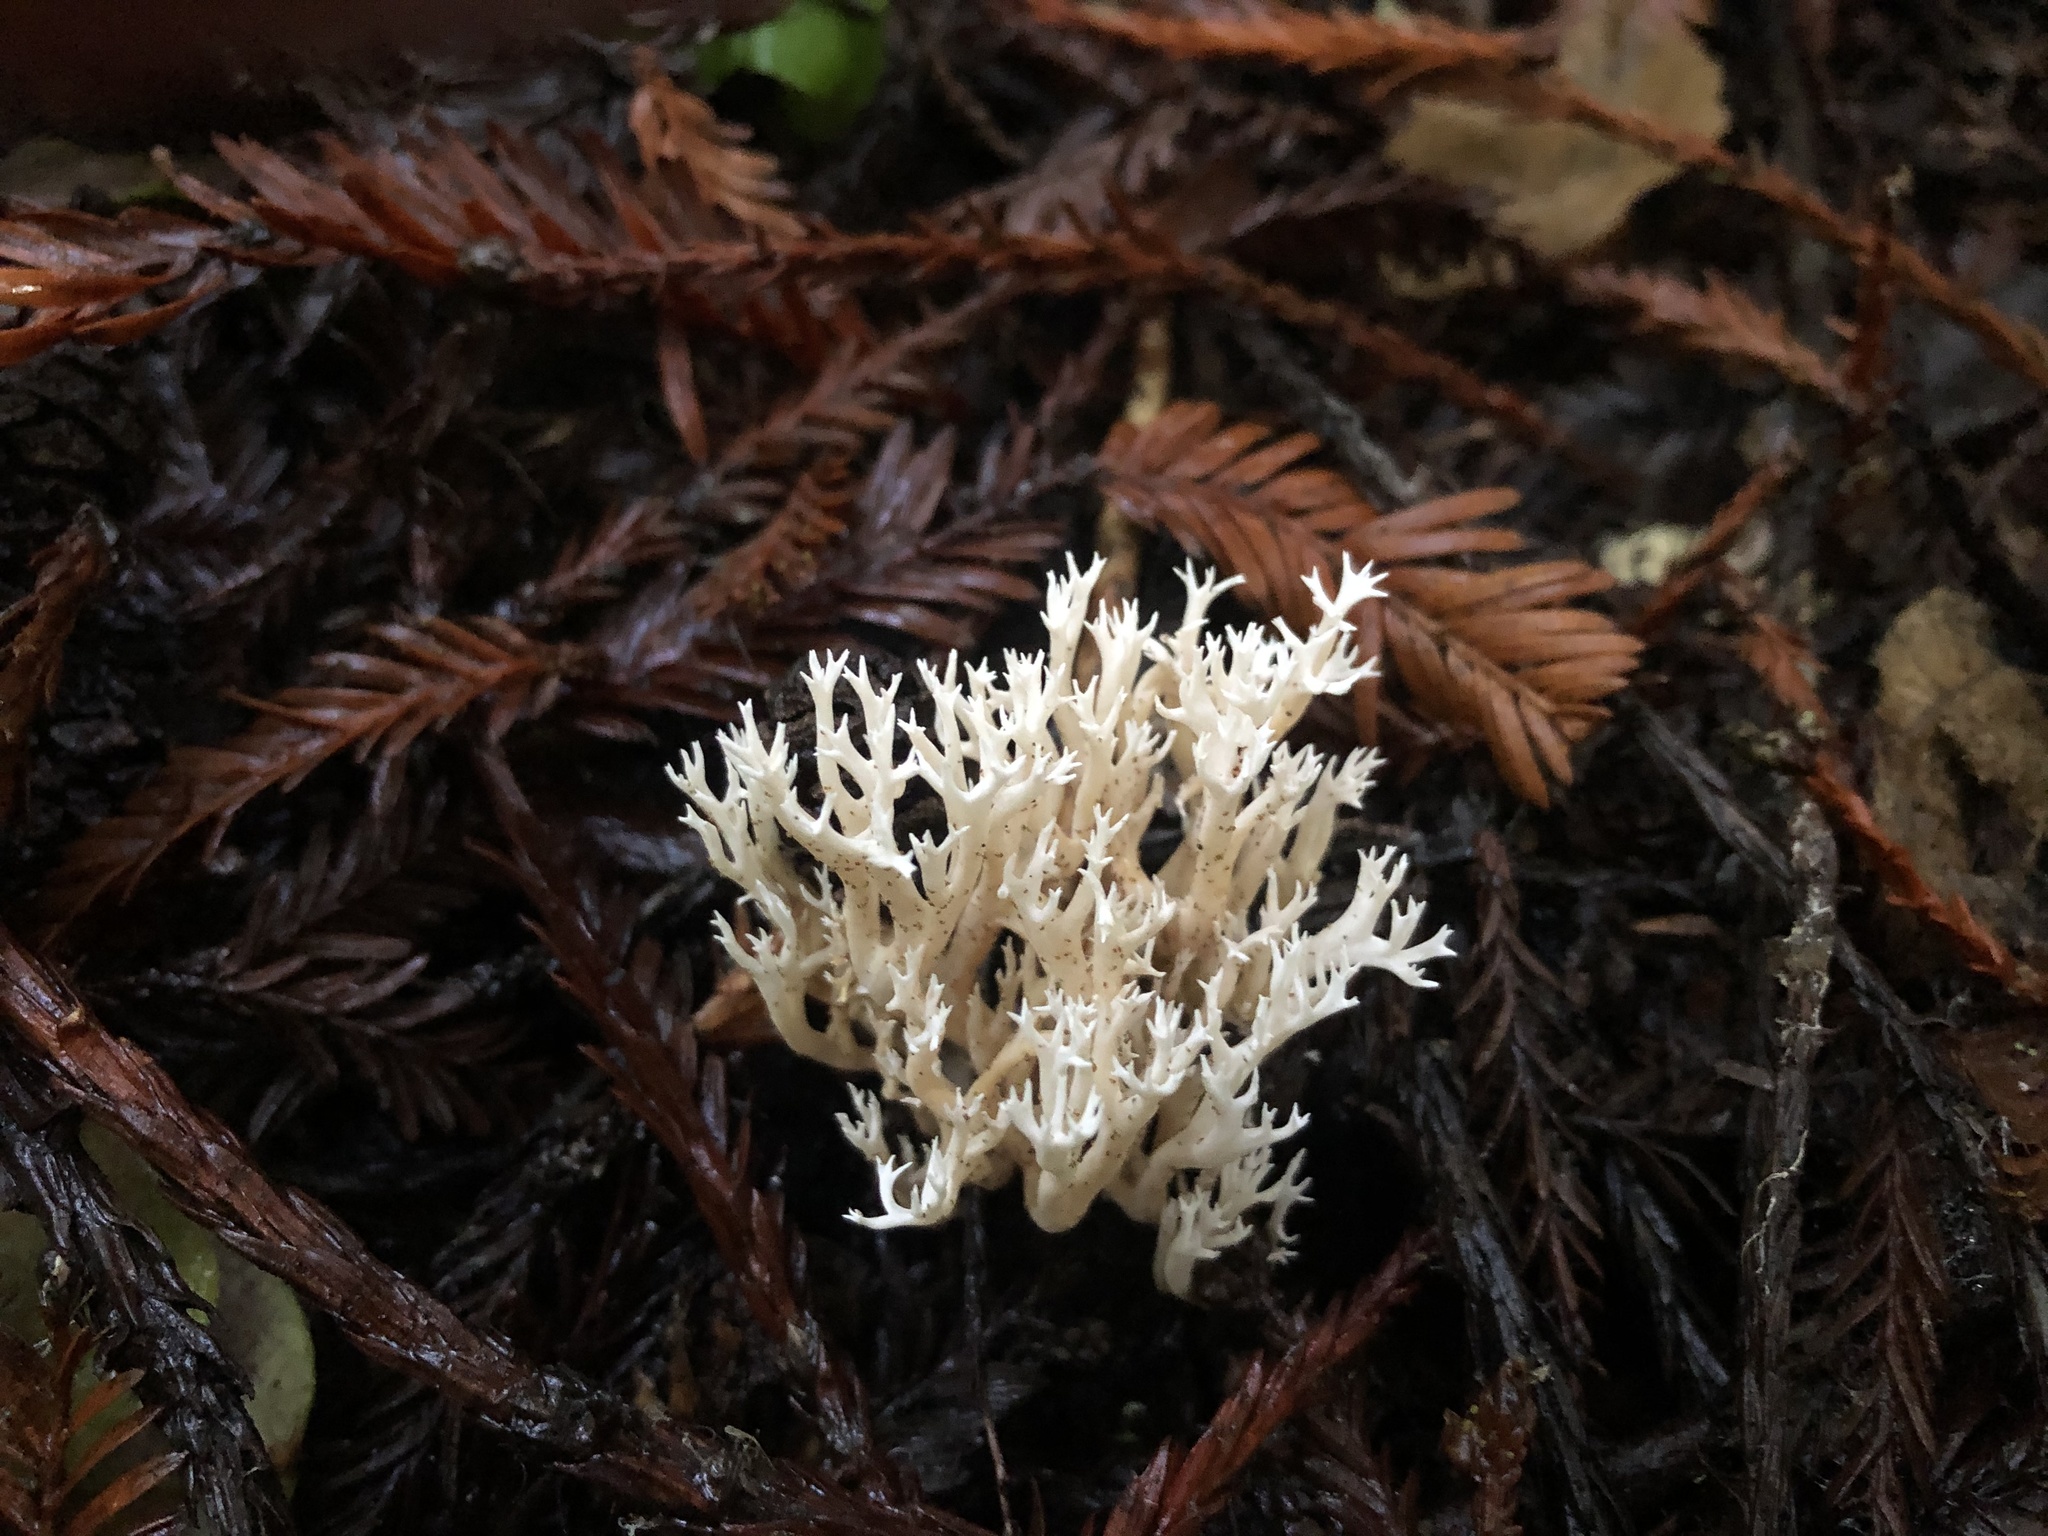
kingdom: Fungi
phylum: Basidiomycota
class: Agaricomycetes
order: Cantharellales
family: Hydnaceae
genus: Clavulina
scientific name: Clavulina coralloides
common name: Crested coral
